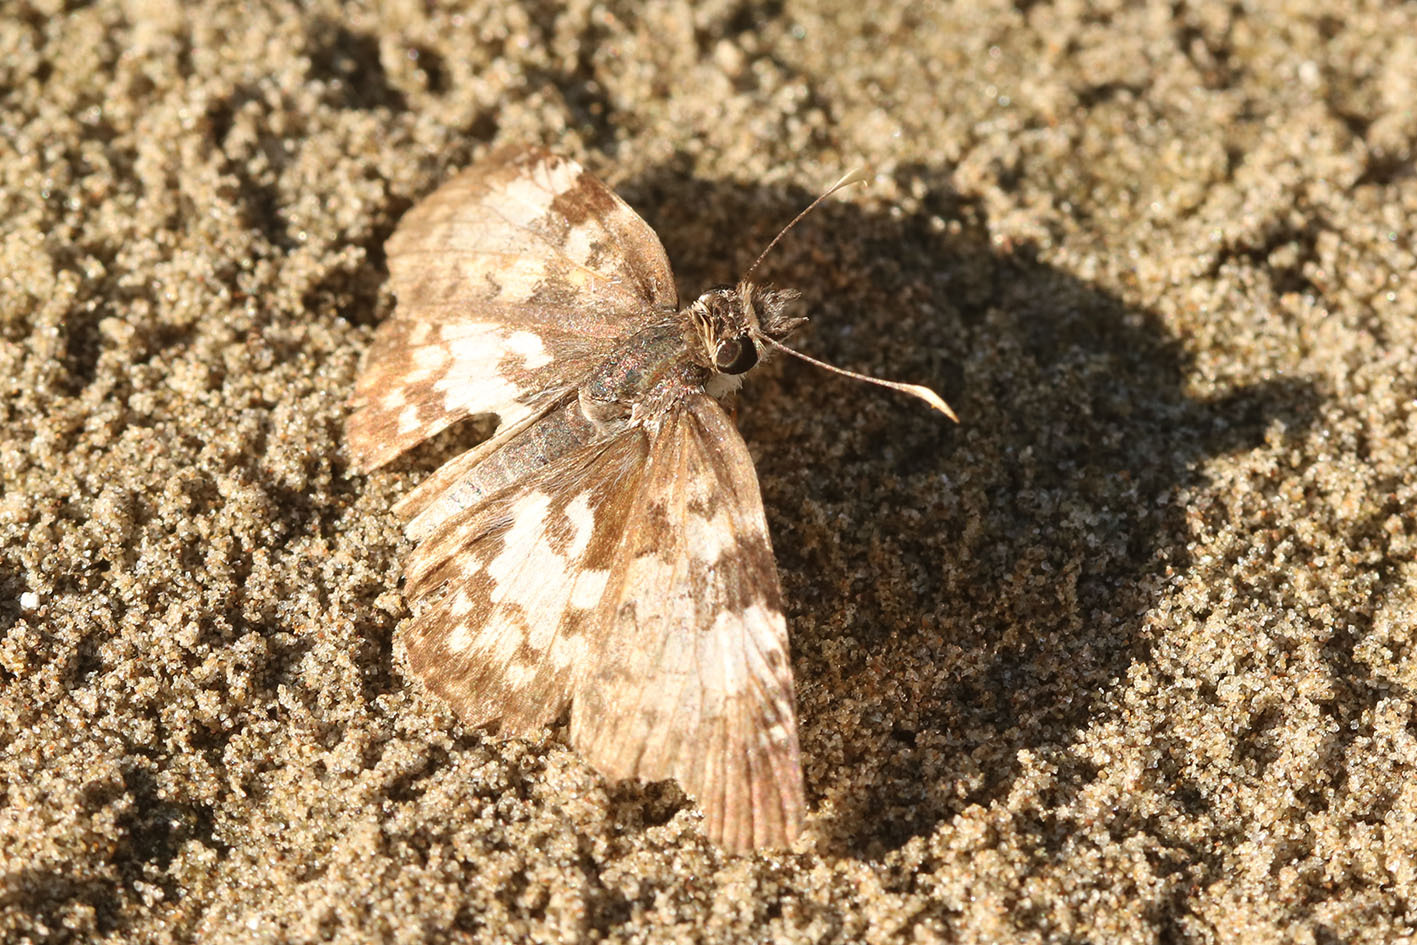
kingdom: Animalia
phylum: Arthropoda
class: Insecta
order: Lepidoptera
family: Hesperiidae
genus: Chiomara
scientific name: Chiomara asychis
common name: White-patterned skipper
